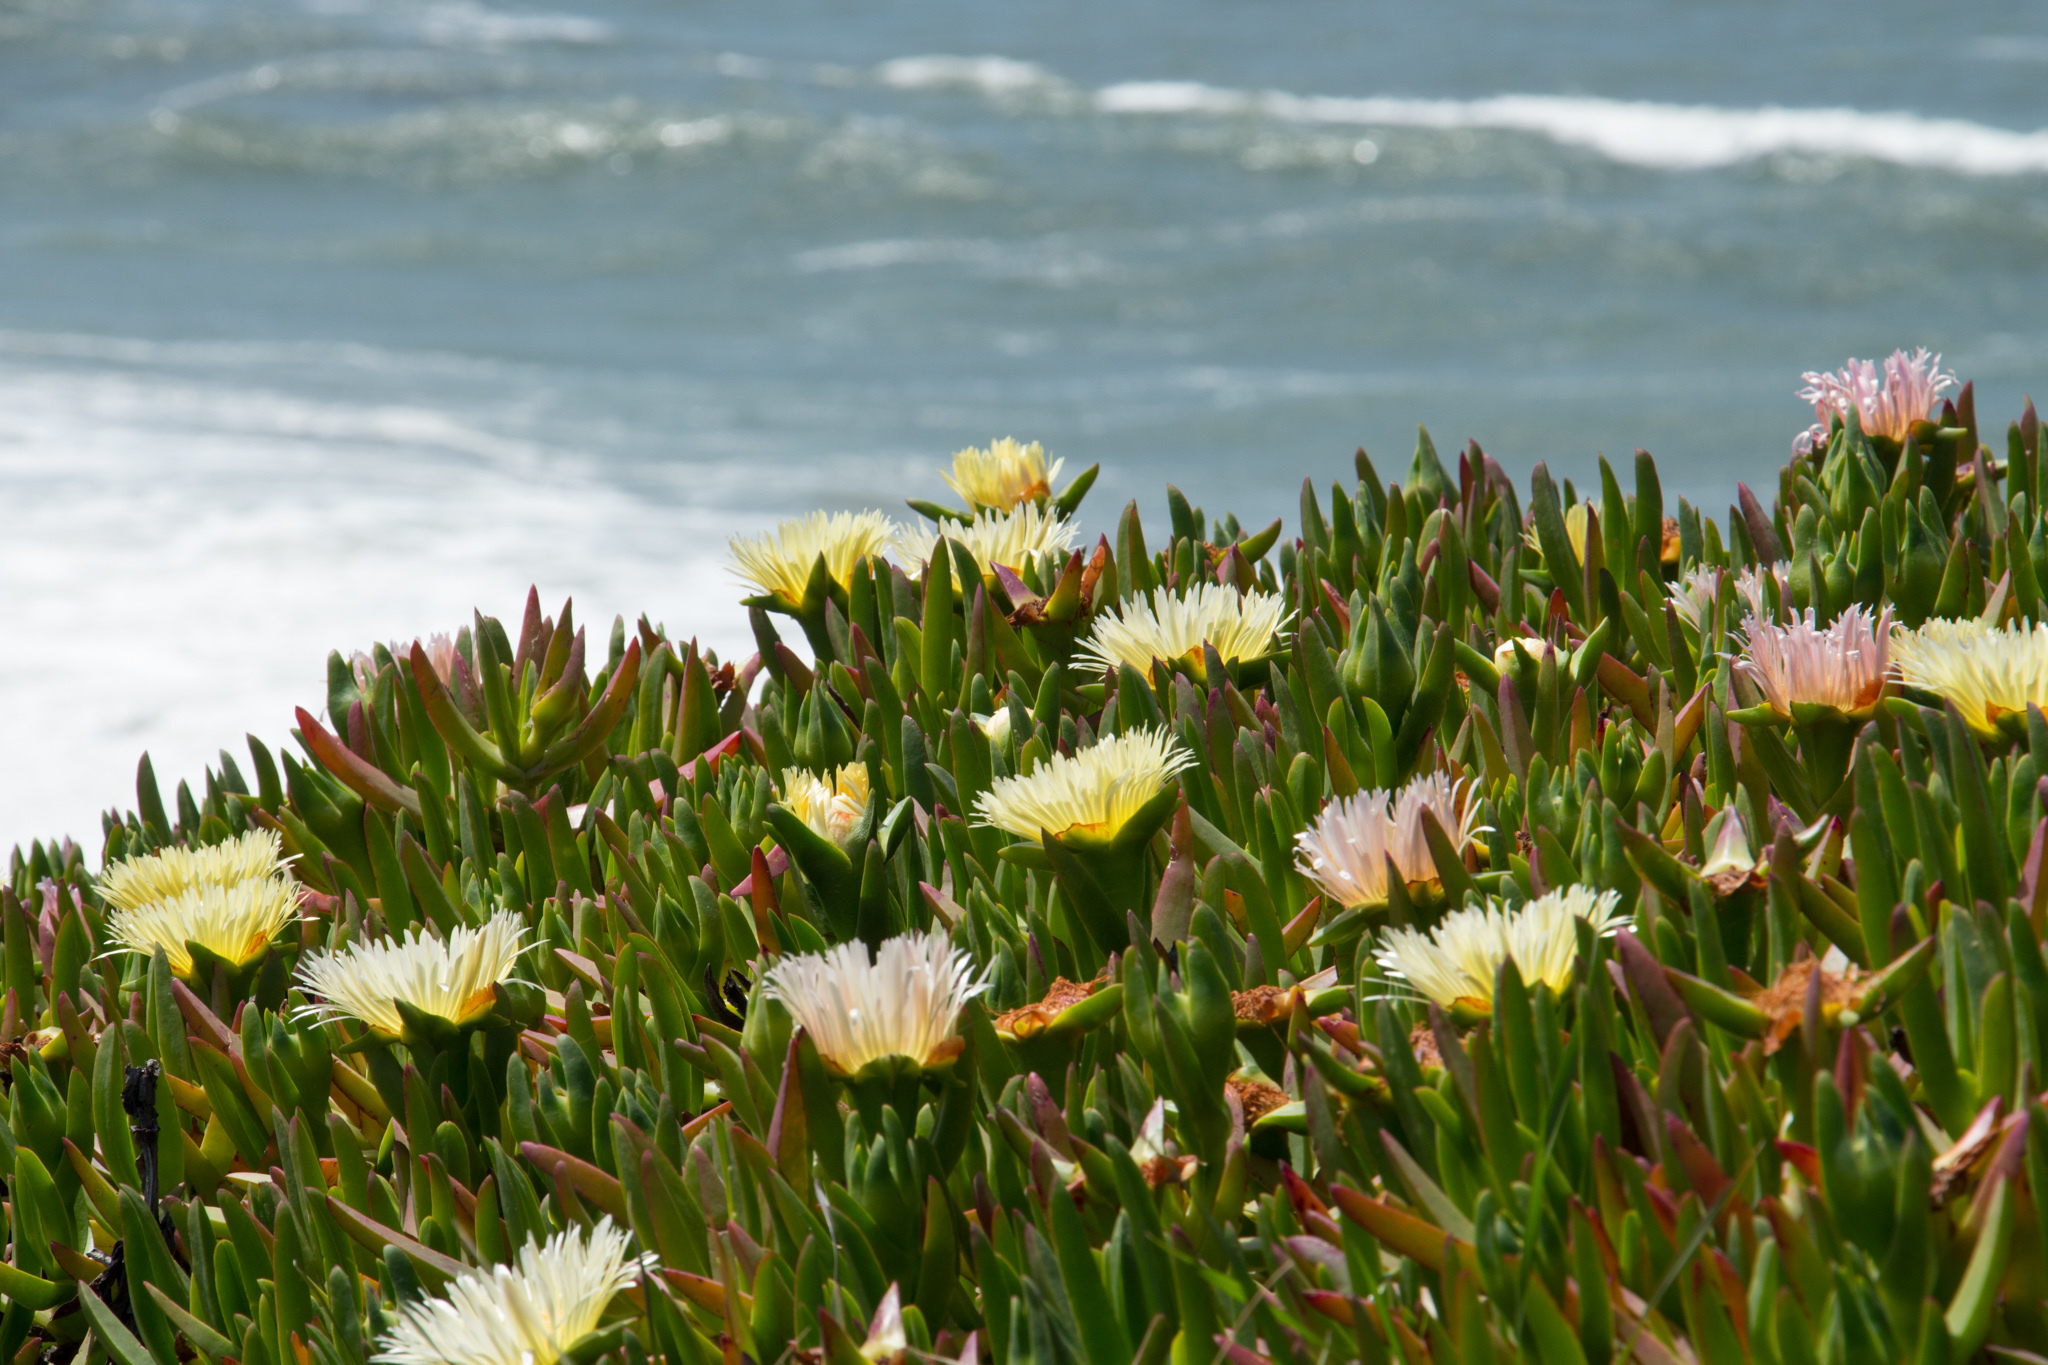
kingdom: Plantae
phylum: Tracheophyta
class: Magnoliopsida
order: Caryophyllales
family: Aizoaceae
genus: Carpobrotus
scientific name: Carpobrotus edulis
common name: Hottentot-fig
